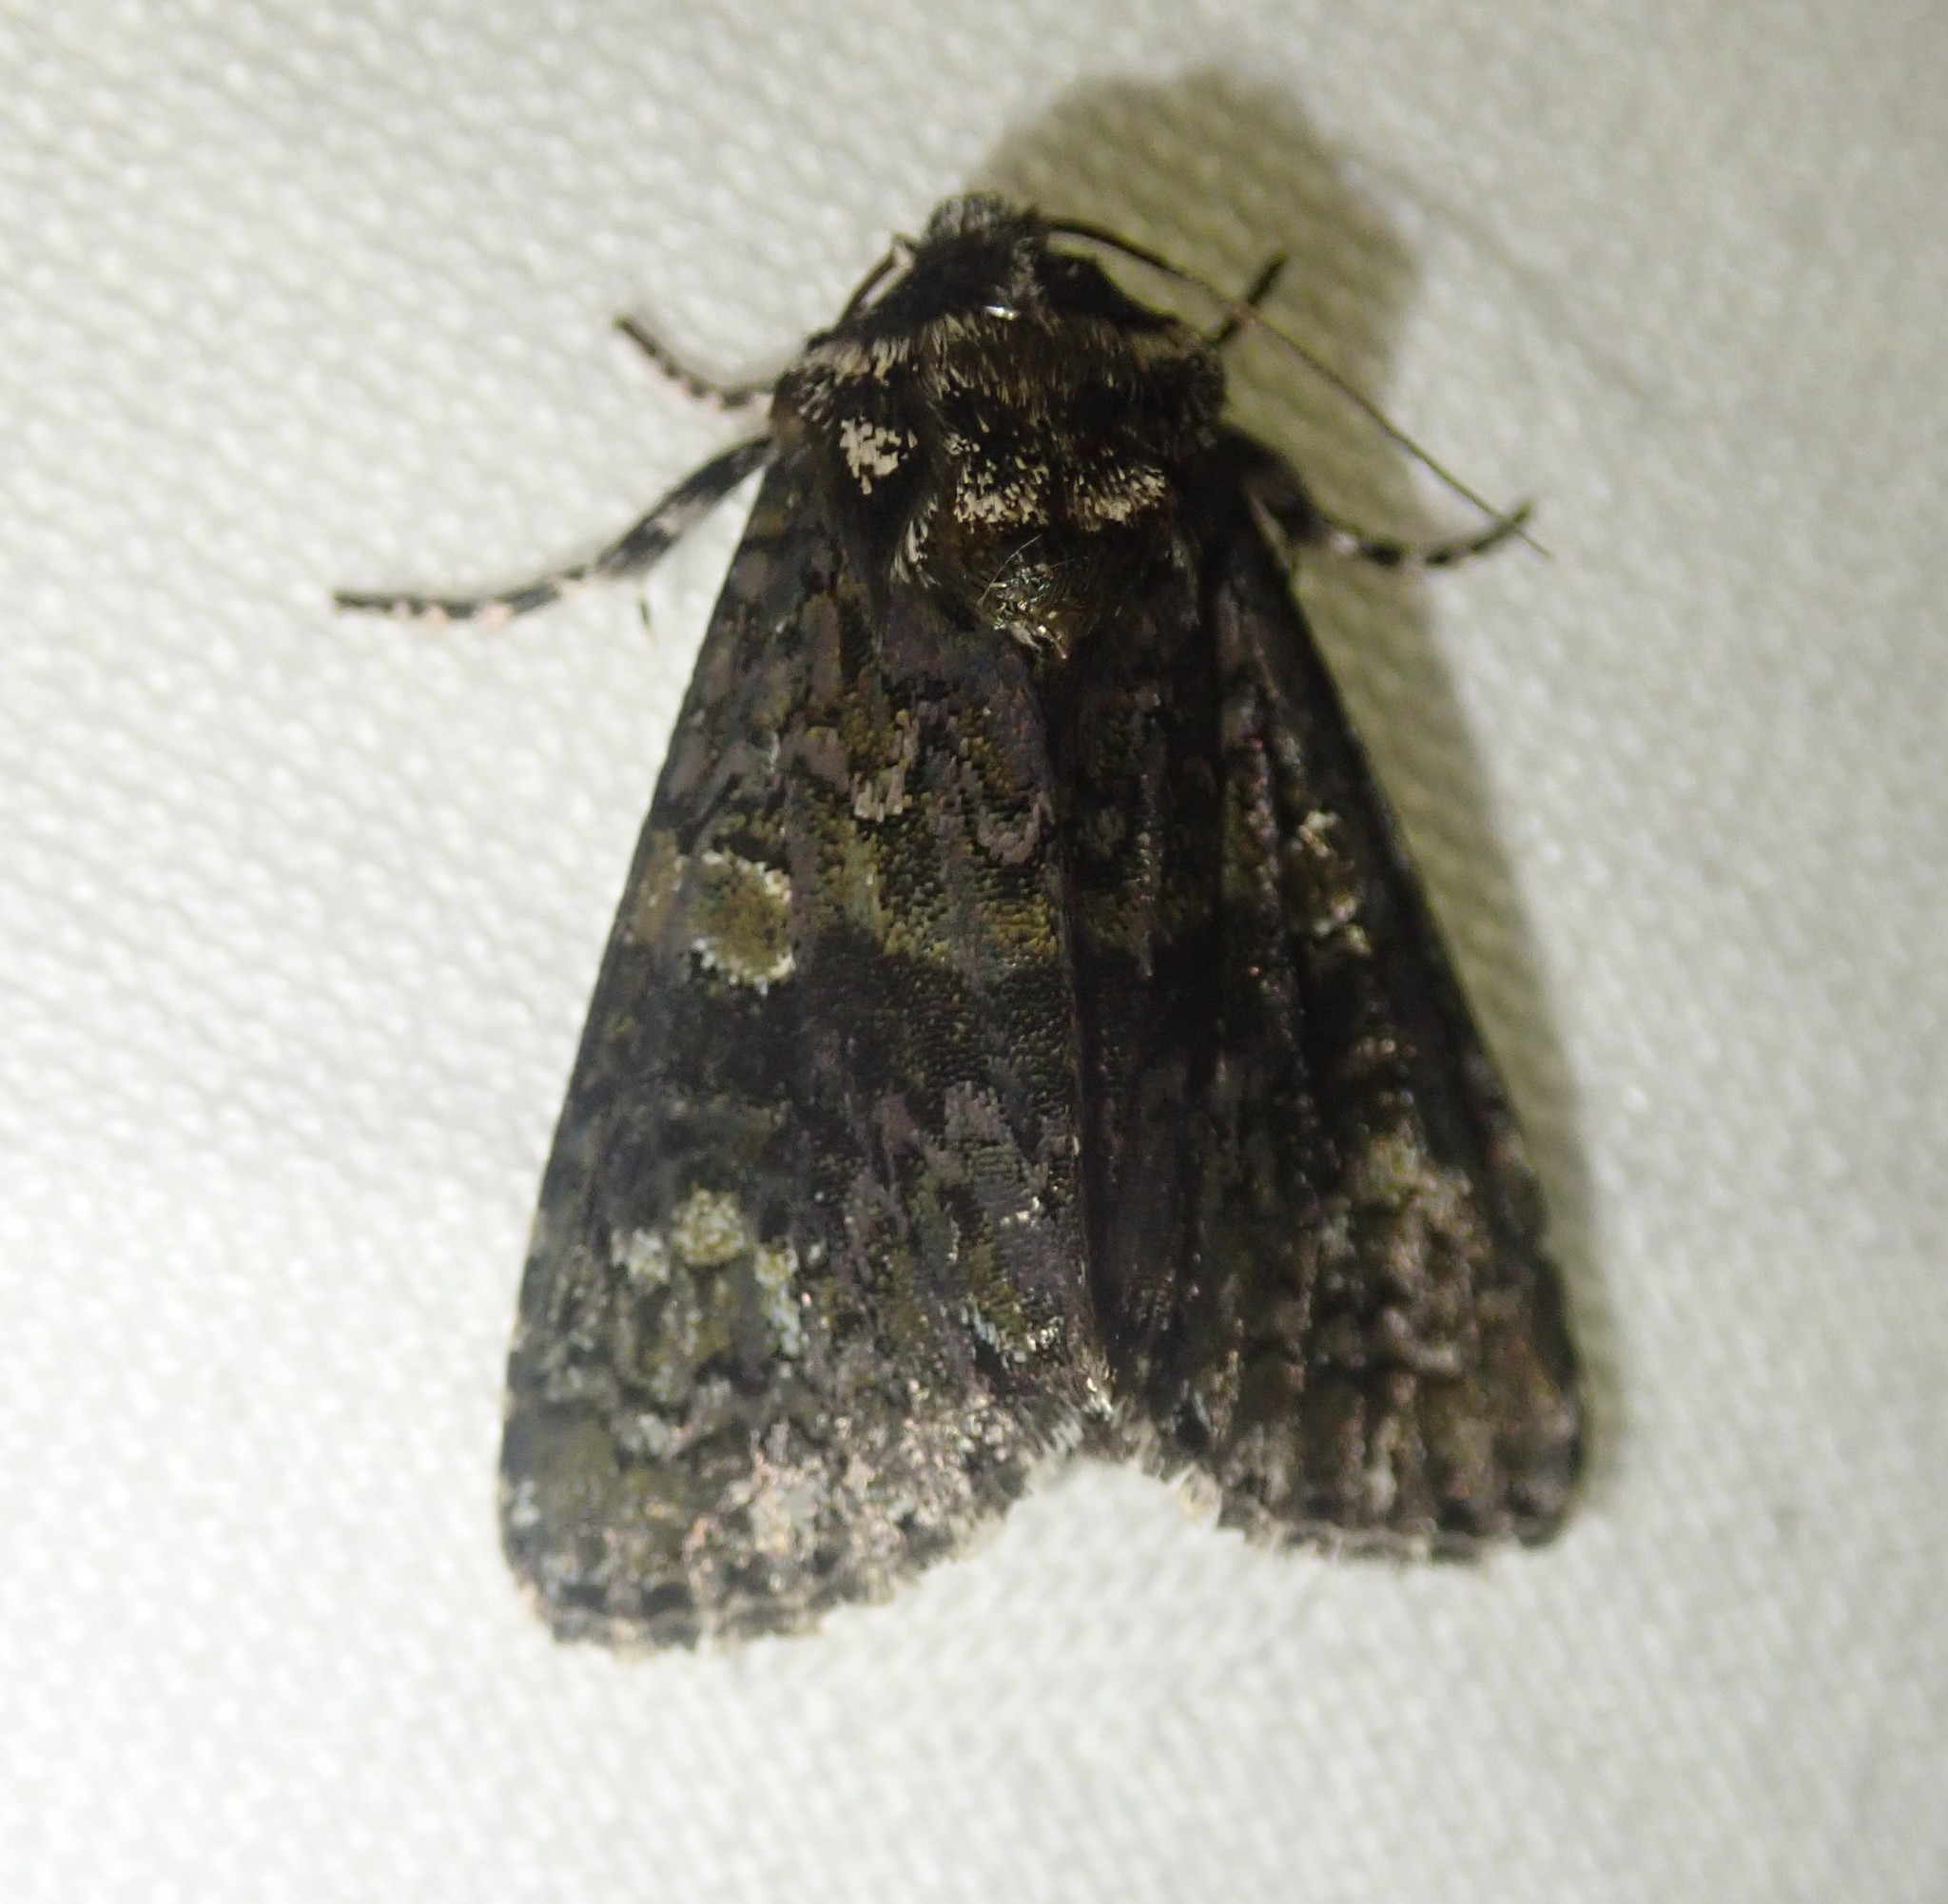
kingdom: Animalia
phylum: Arthropoda
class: Insecta
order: Lepidoptera
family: Noctuidae
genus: Craniophora
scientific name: Craniophora ligustri
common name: Coronet
